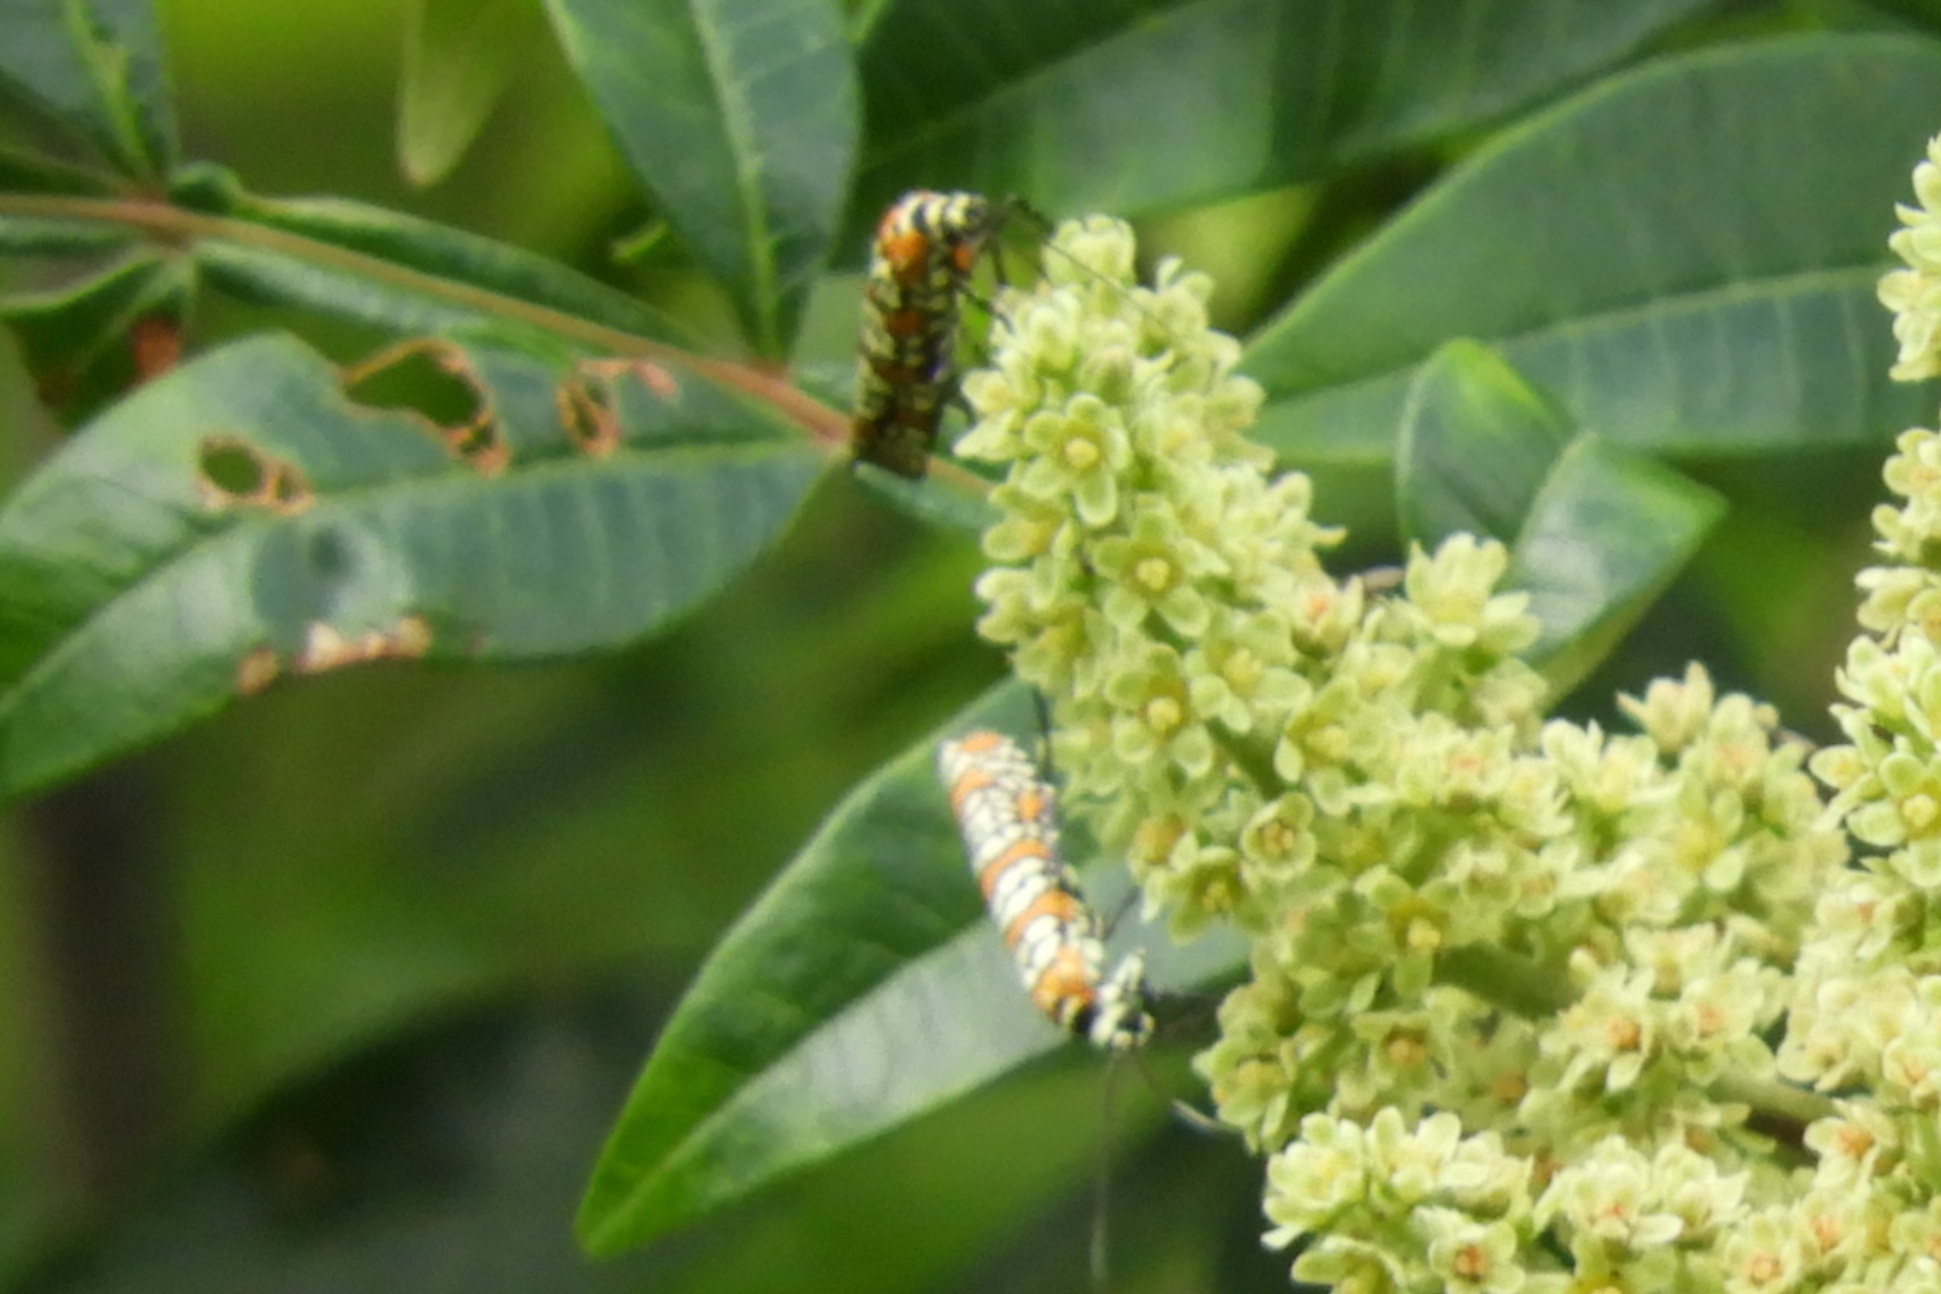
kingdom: Animalia
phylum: Arthropoda
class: Insecta
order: Lepidoptera
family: Attevidae
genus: Atteva
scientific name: Atteva punctella
